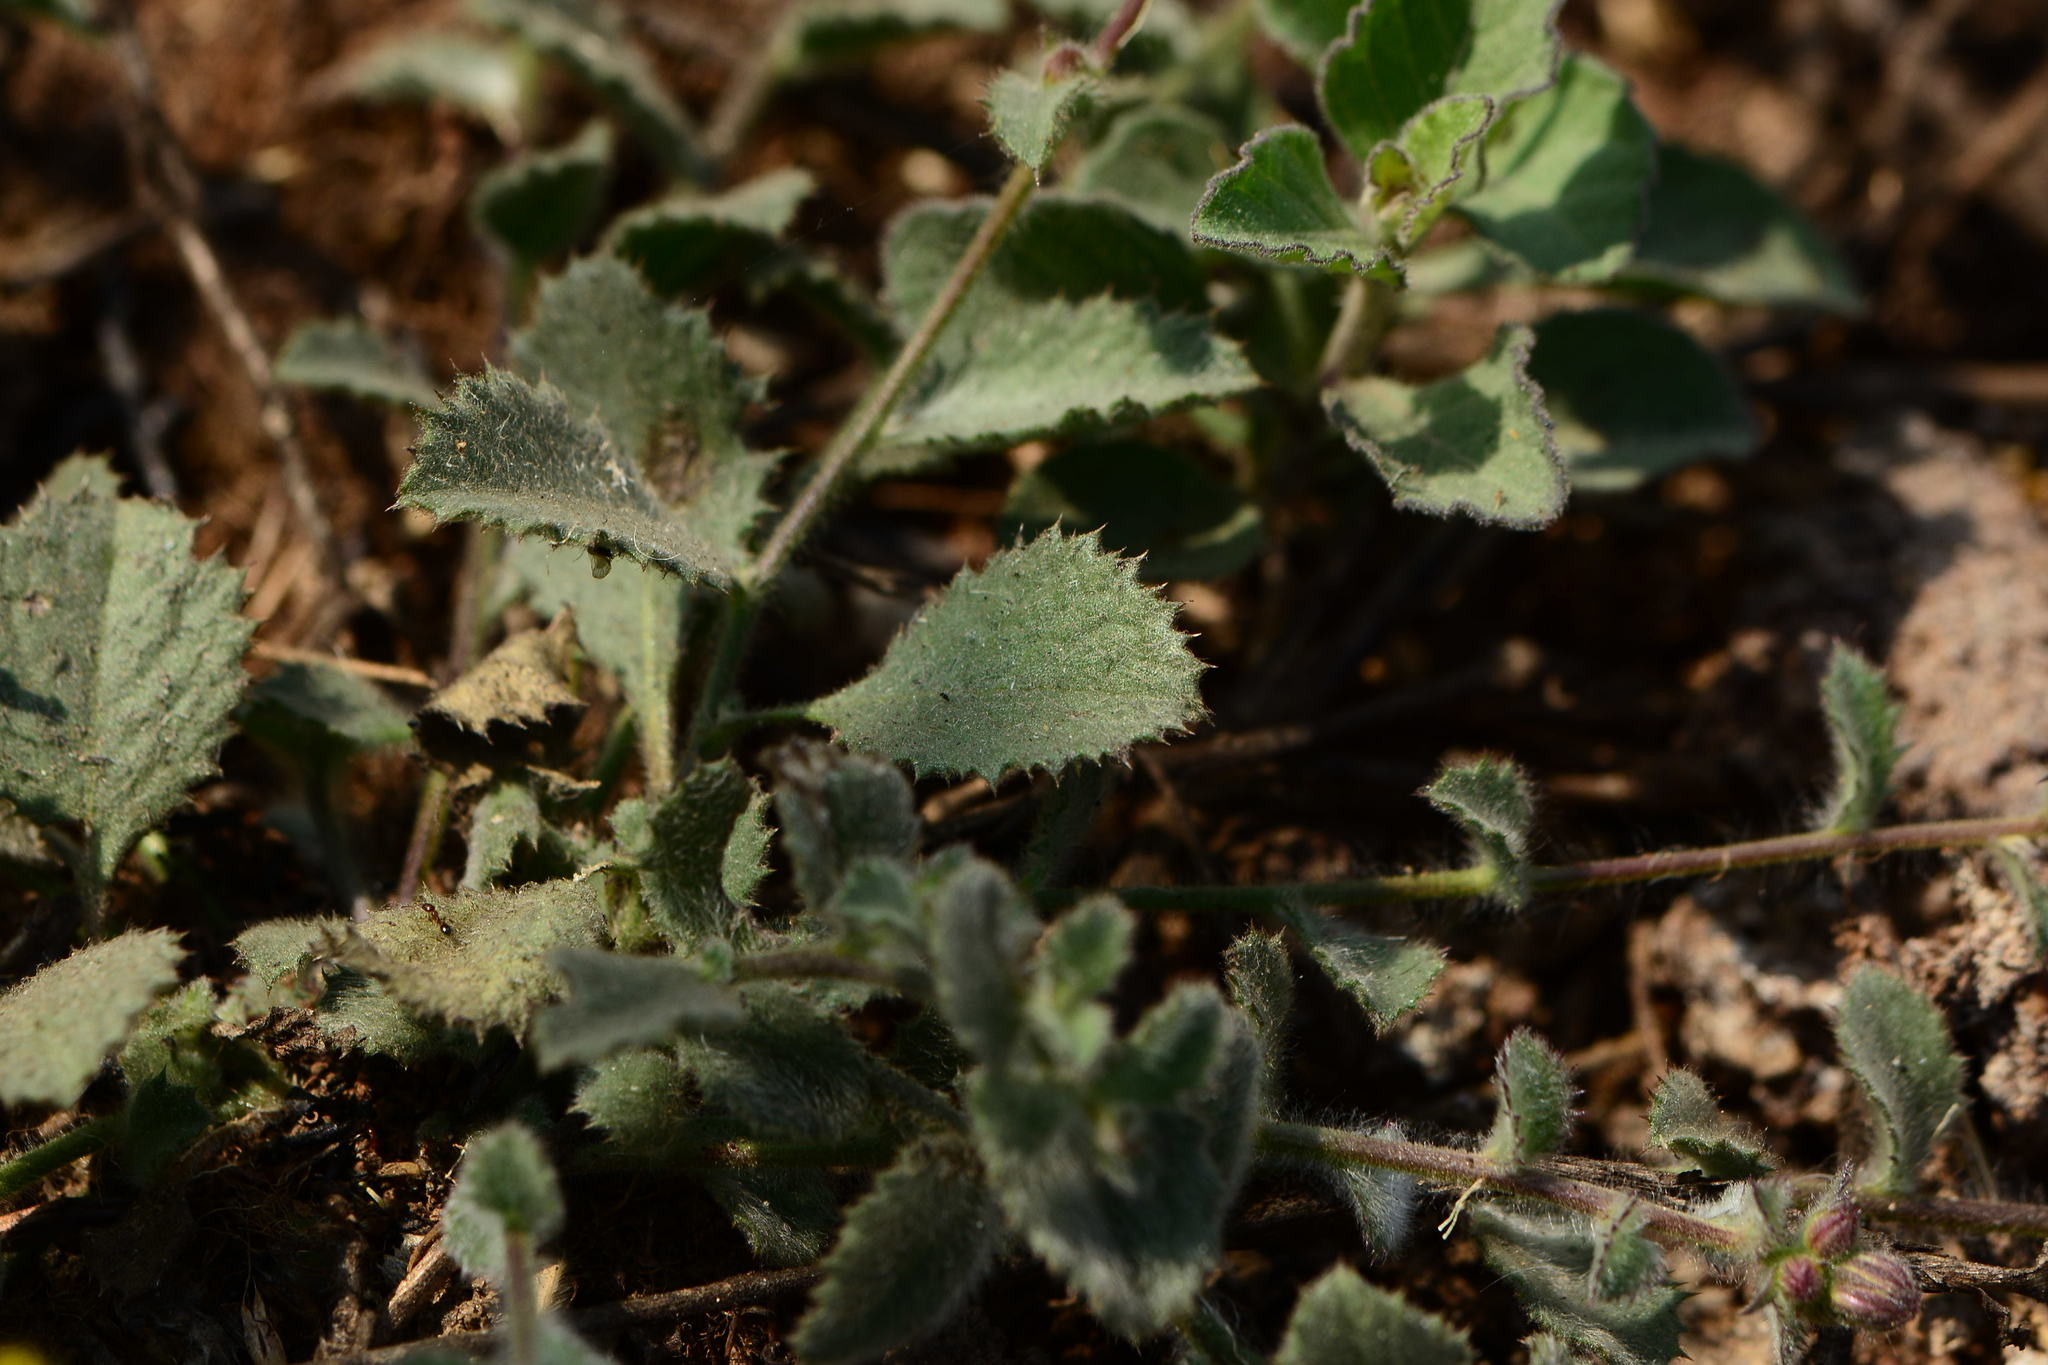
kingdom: Plantae
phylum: Tracheophyta
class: Magnoliopsida
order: Asterales
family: Asteraceae
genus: Blumea
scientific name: Blumea oxyodonta
